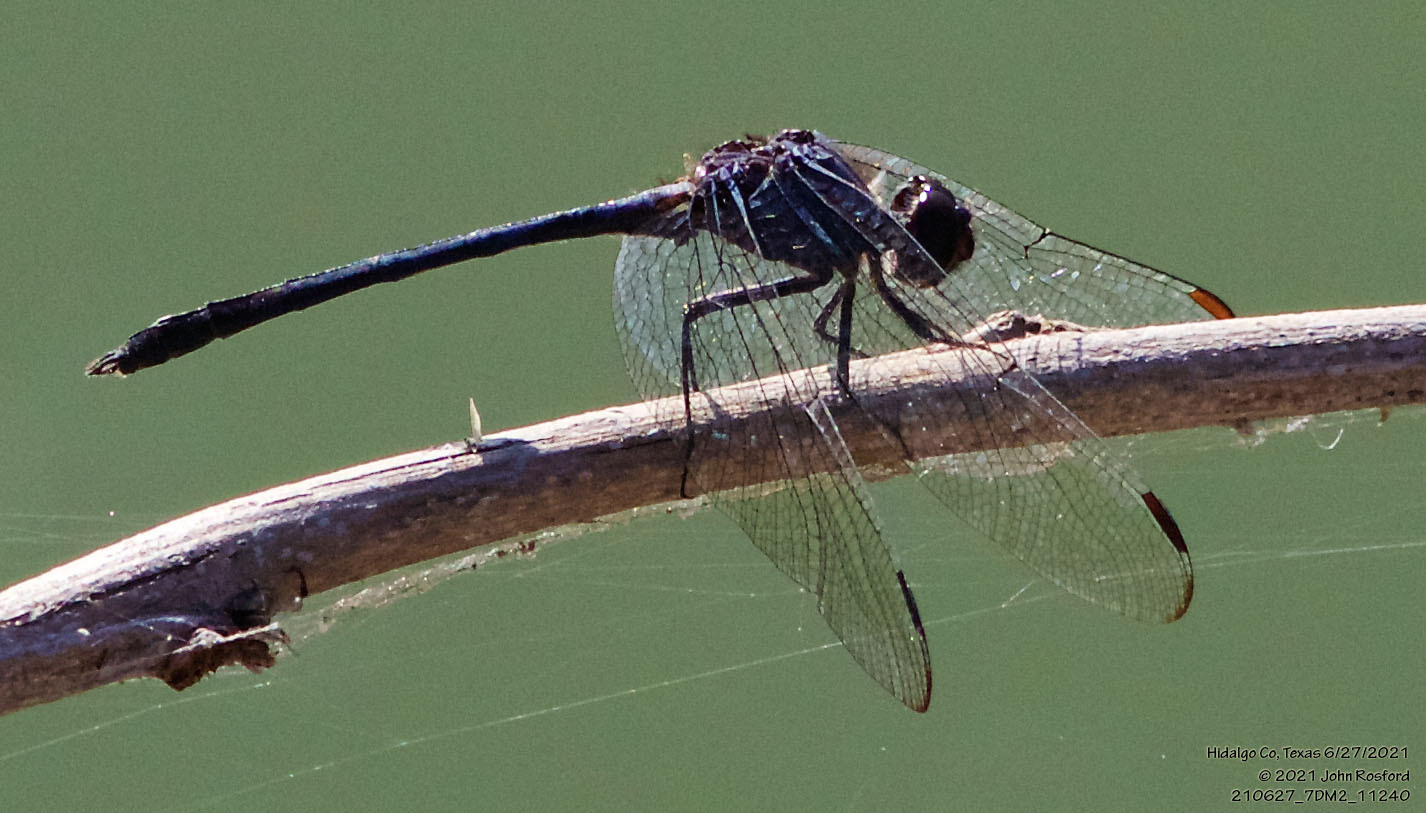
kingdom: Animalia
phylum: Arthropoda
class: Insecta
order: Odonata
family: Libellulidae
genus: Dythemis
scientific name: Dythemis nigrescens
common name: Black setwing
